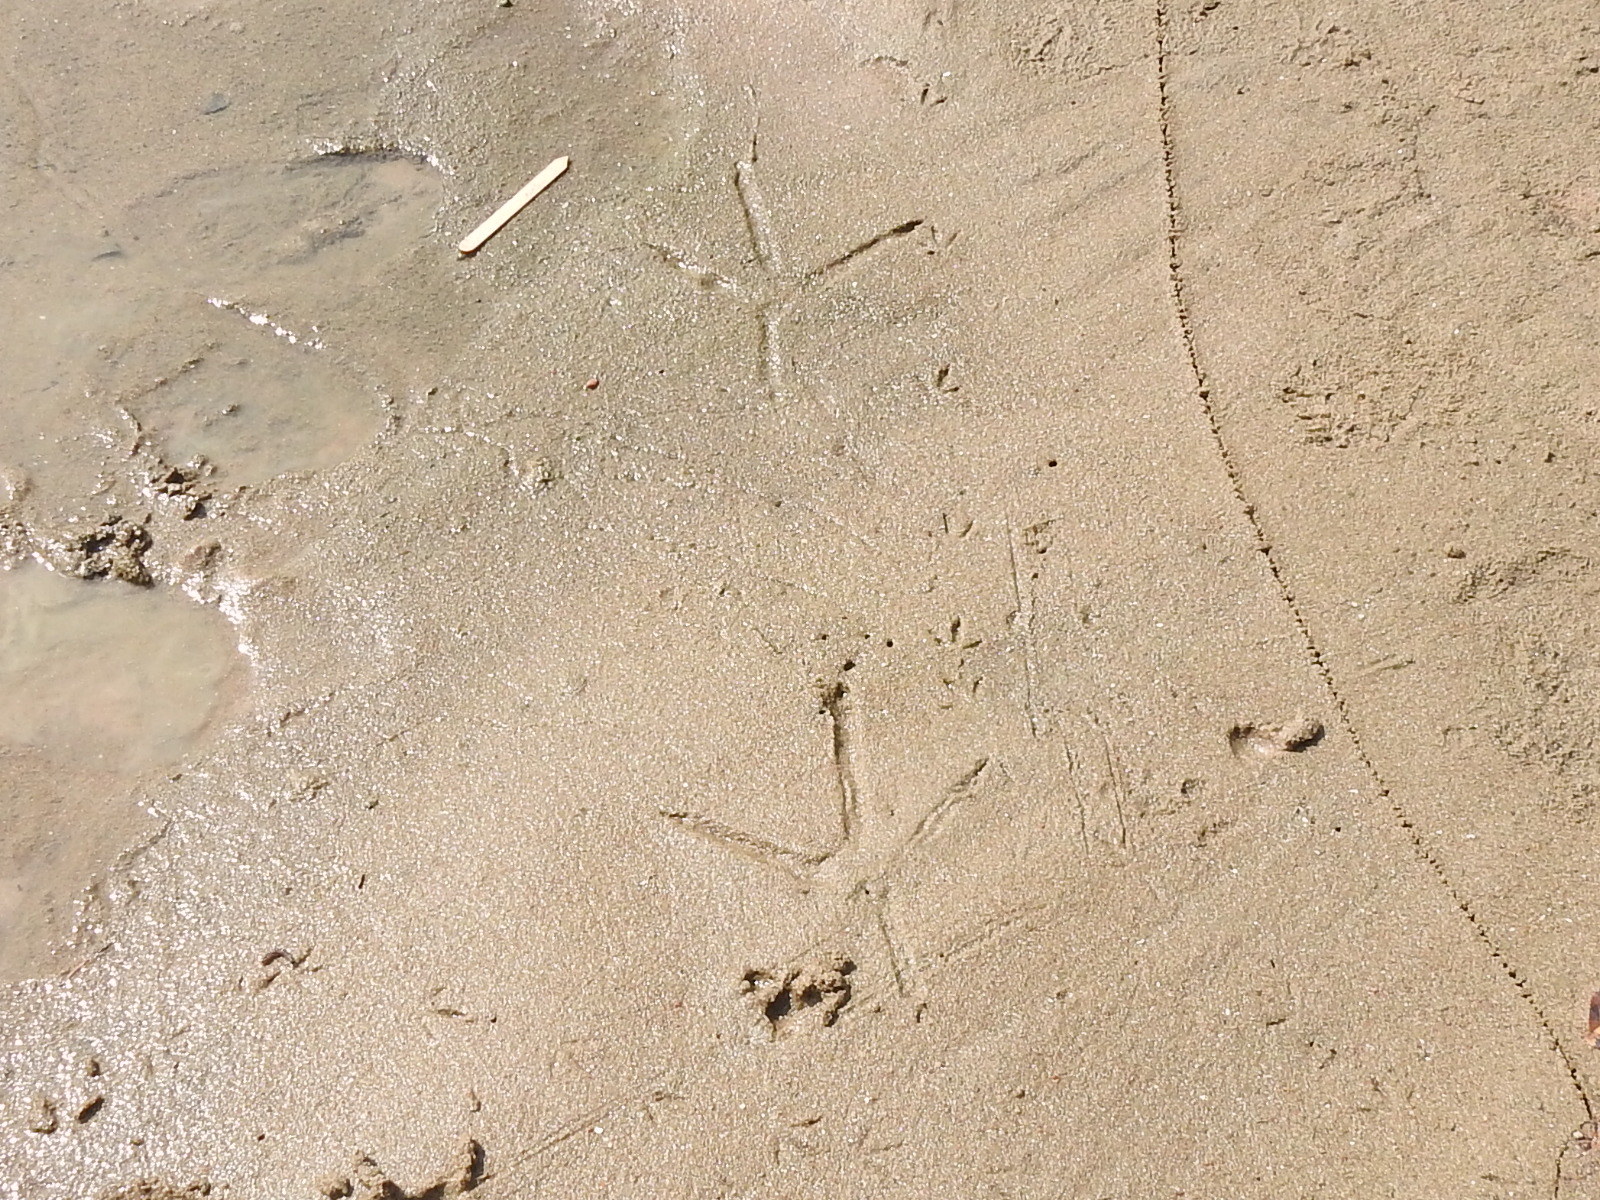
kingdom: Animalia
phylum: Chordata
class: Aves
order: Pelecaniformes
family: Ardeidae
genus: Ardea
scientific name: Ardea herodias
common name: Great blue heron
